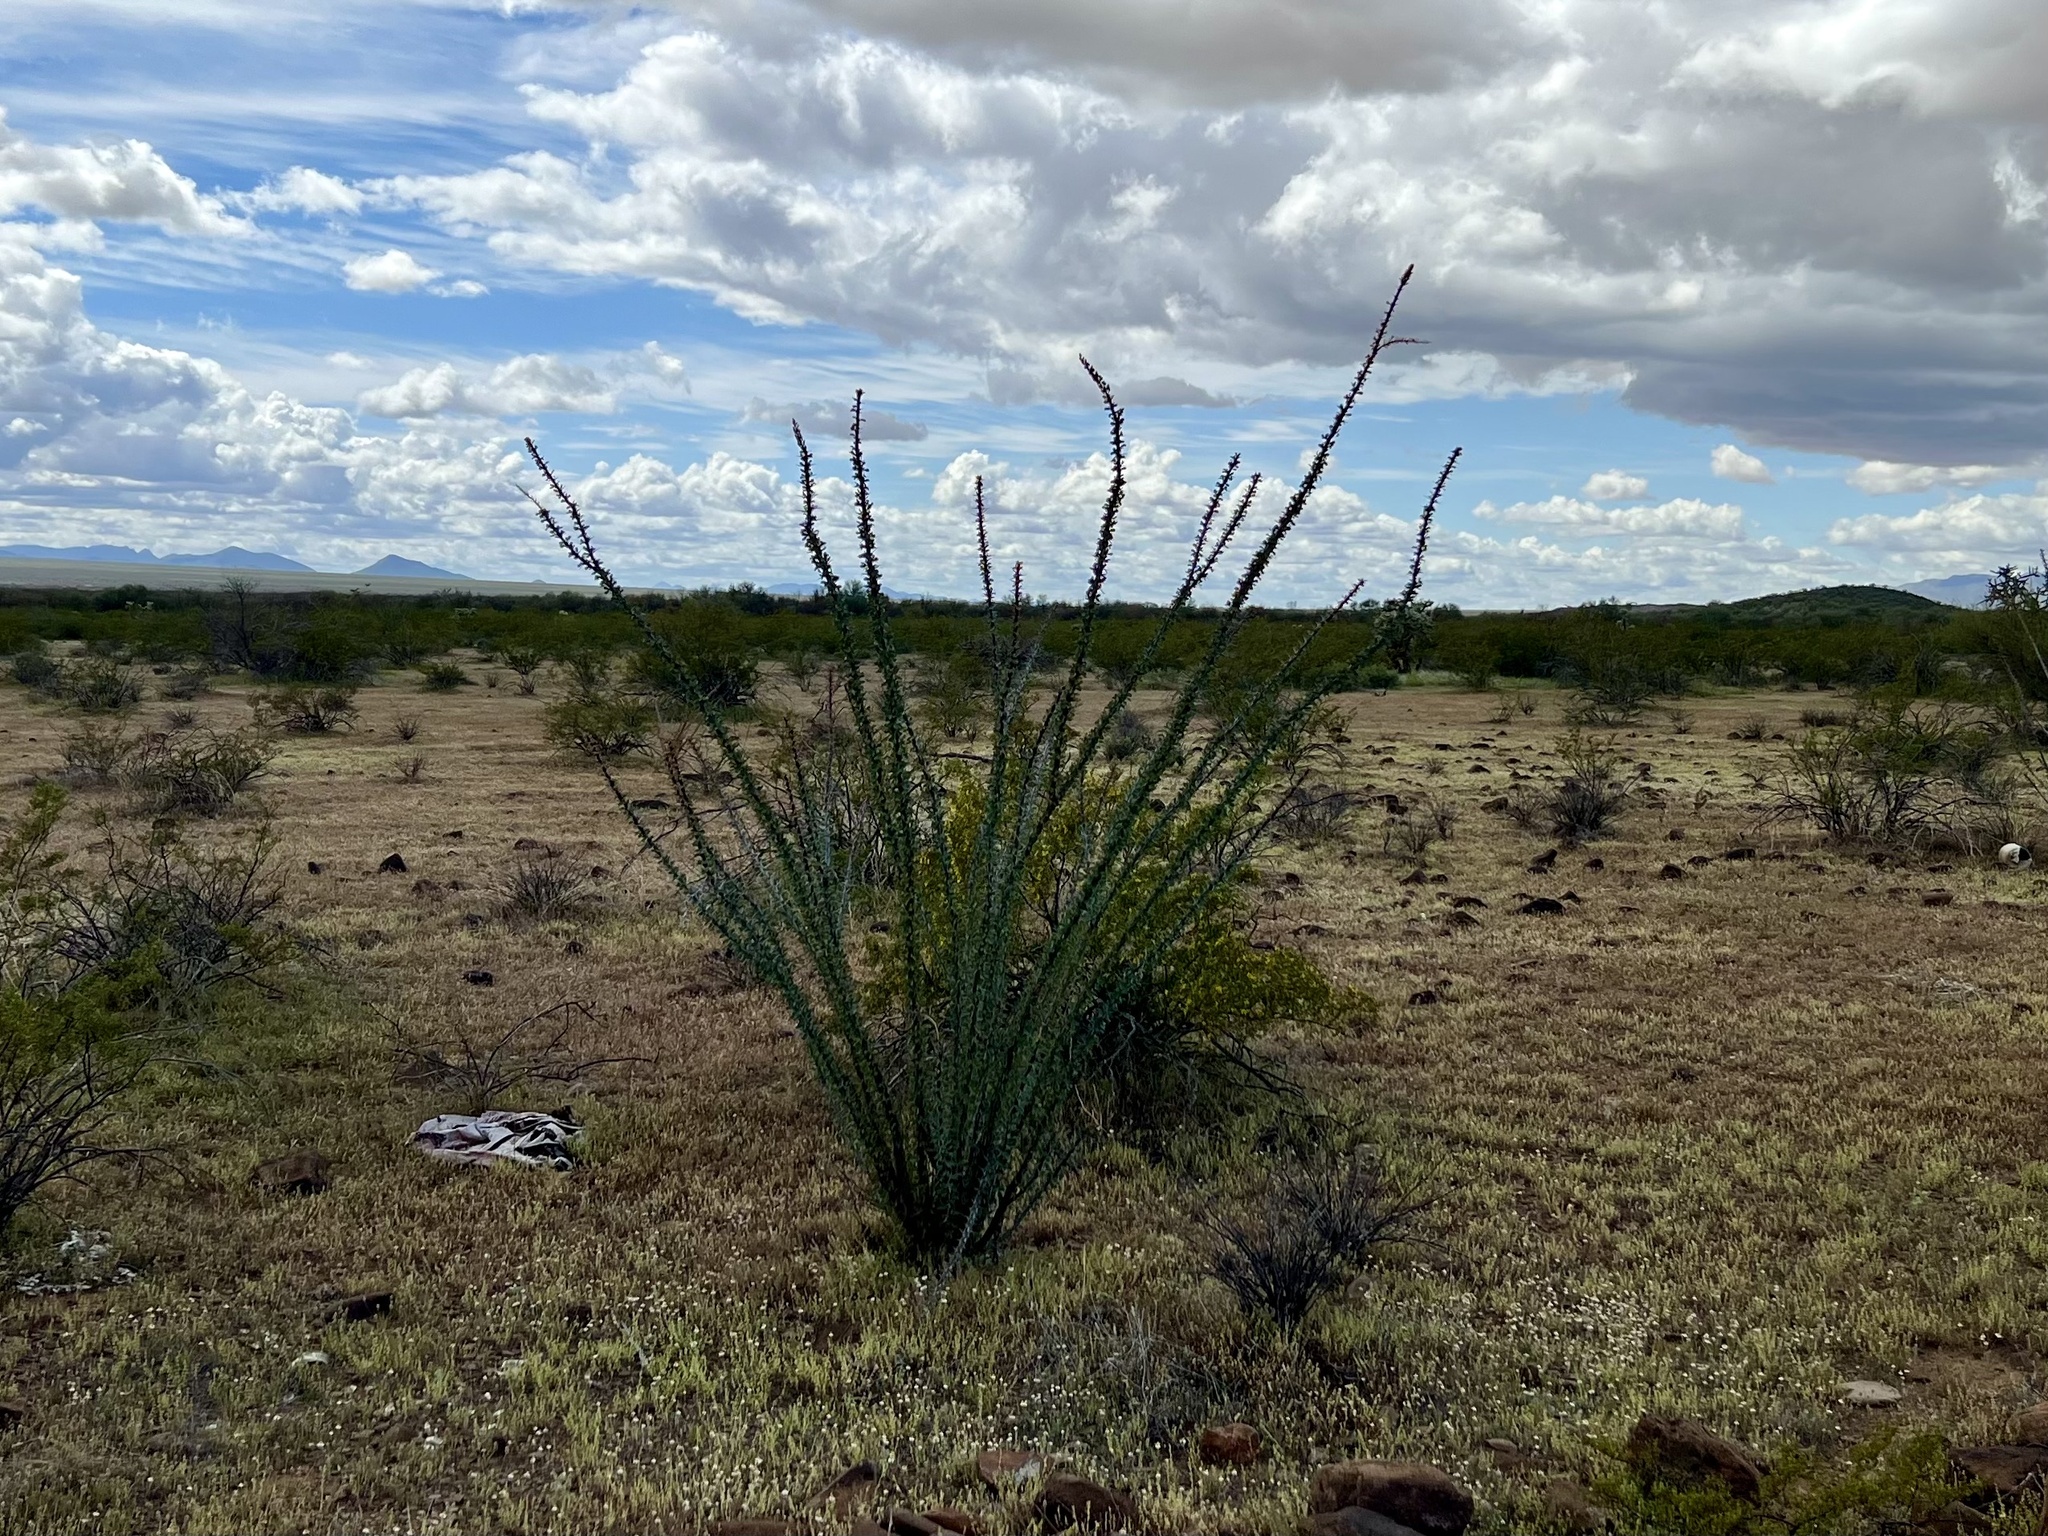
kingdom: Plantae
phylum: Tracheophyta
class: Magnoliopsida
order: Ericales
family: Fouquieriaceae
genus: Fouquieria
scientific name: Fouquieria splendens
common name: Vine-cactus
